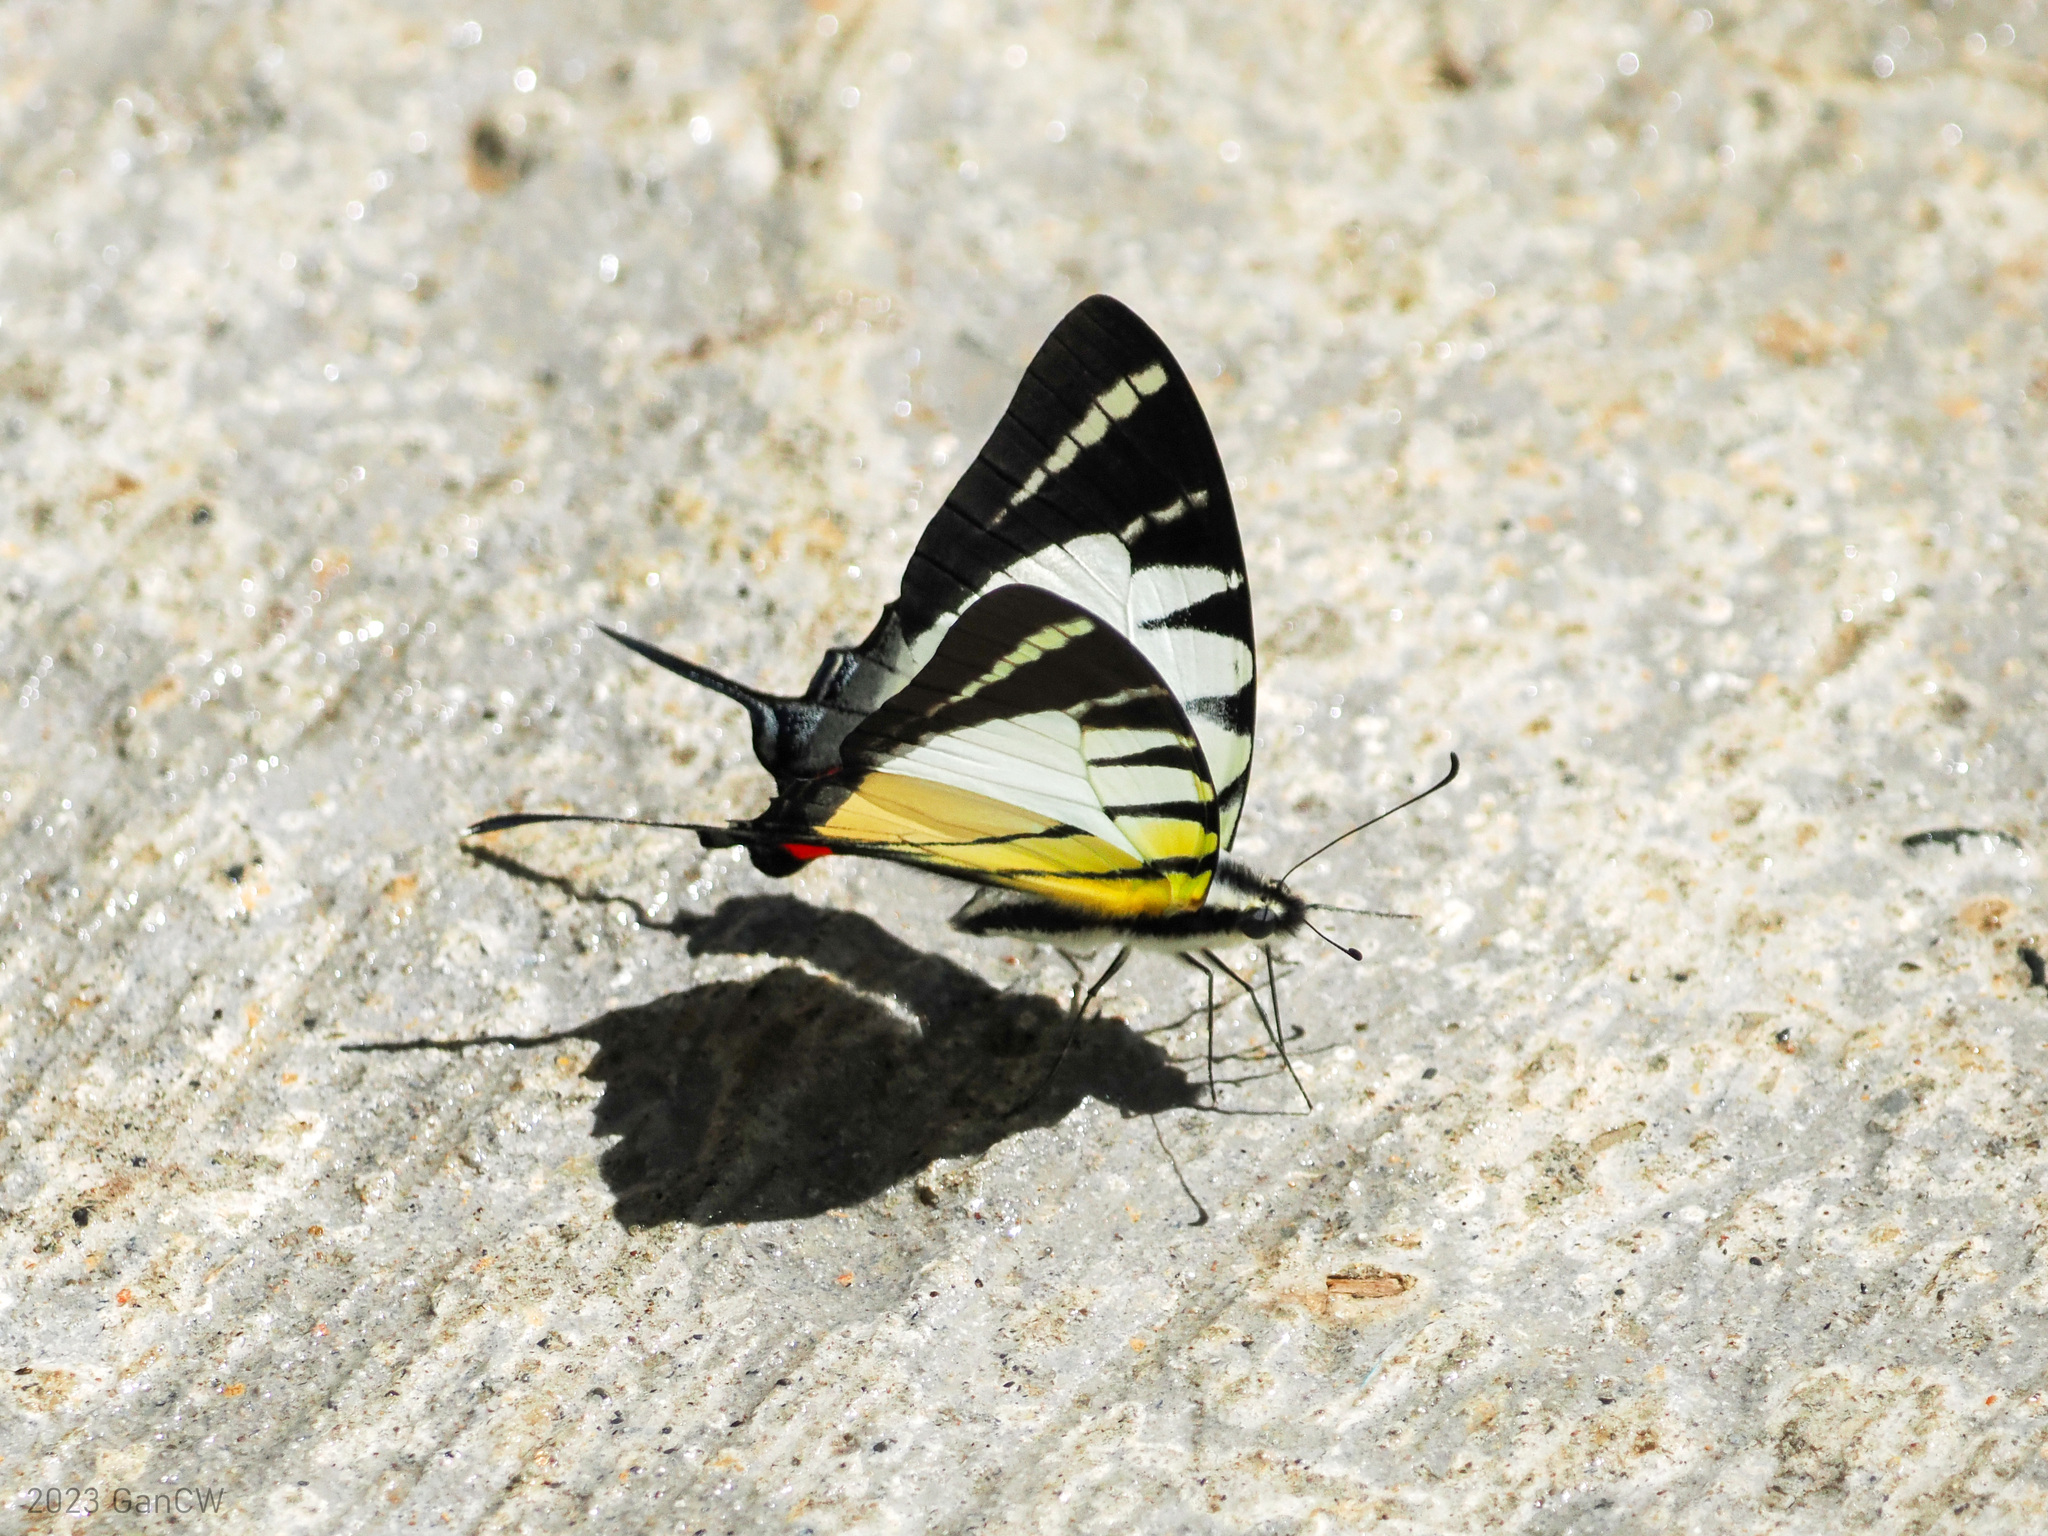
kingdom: Animalia
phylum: Arthropoda
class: Insecta
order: Lepidoptera
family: Papilionidae
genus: Graphium
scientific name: Graphium stratiotes
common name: Kinabalu swordtail
